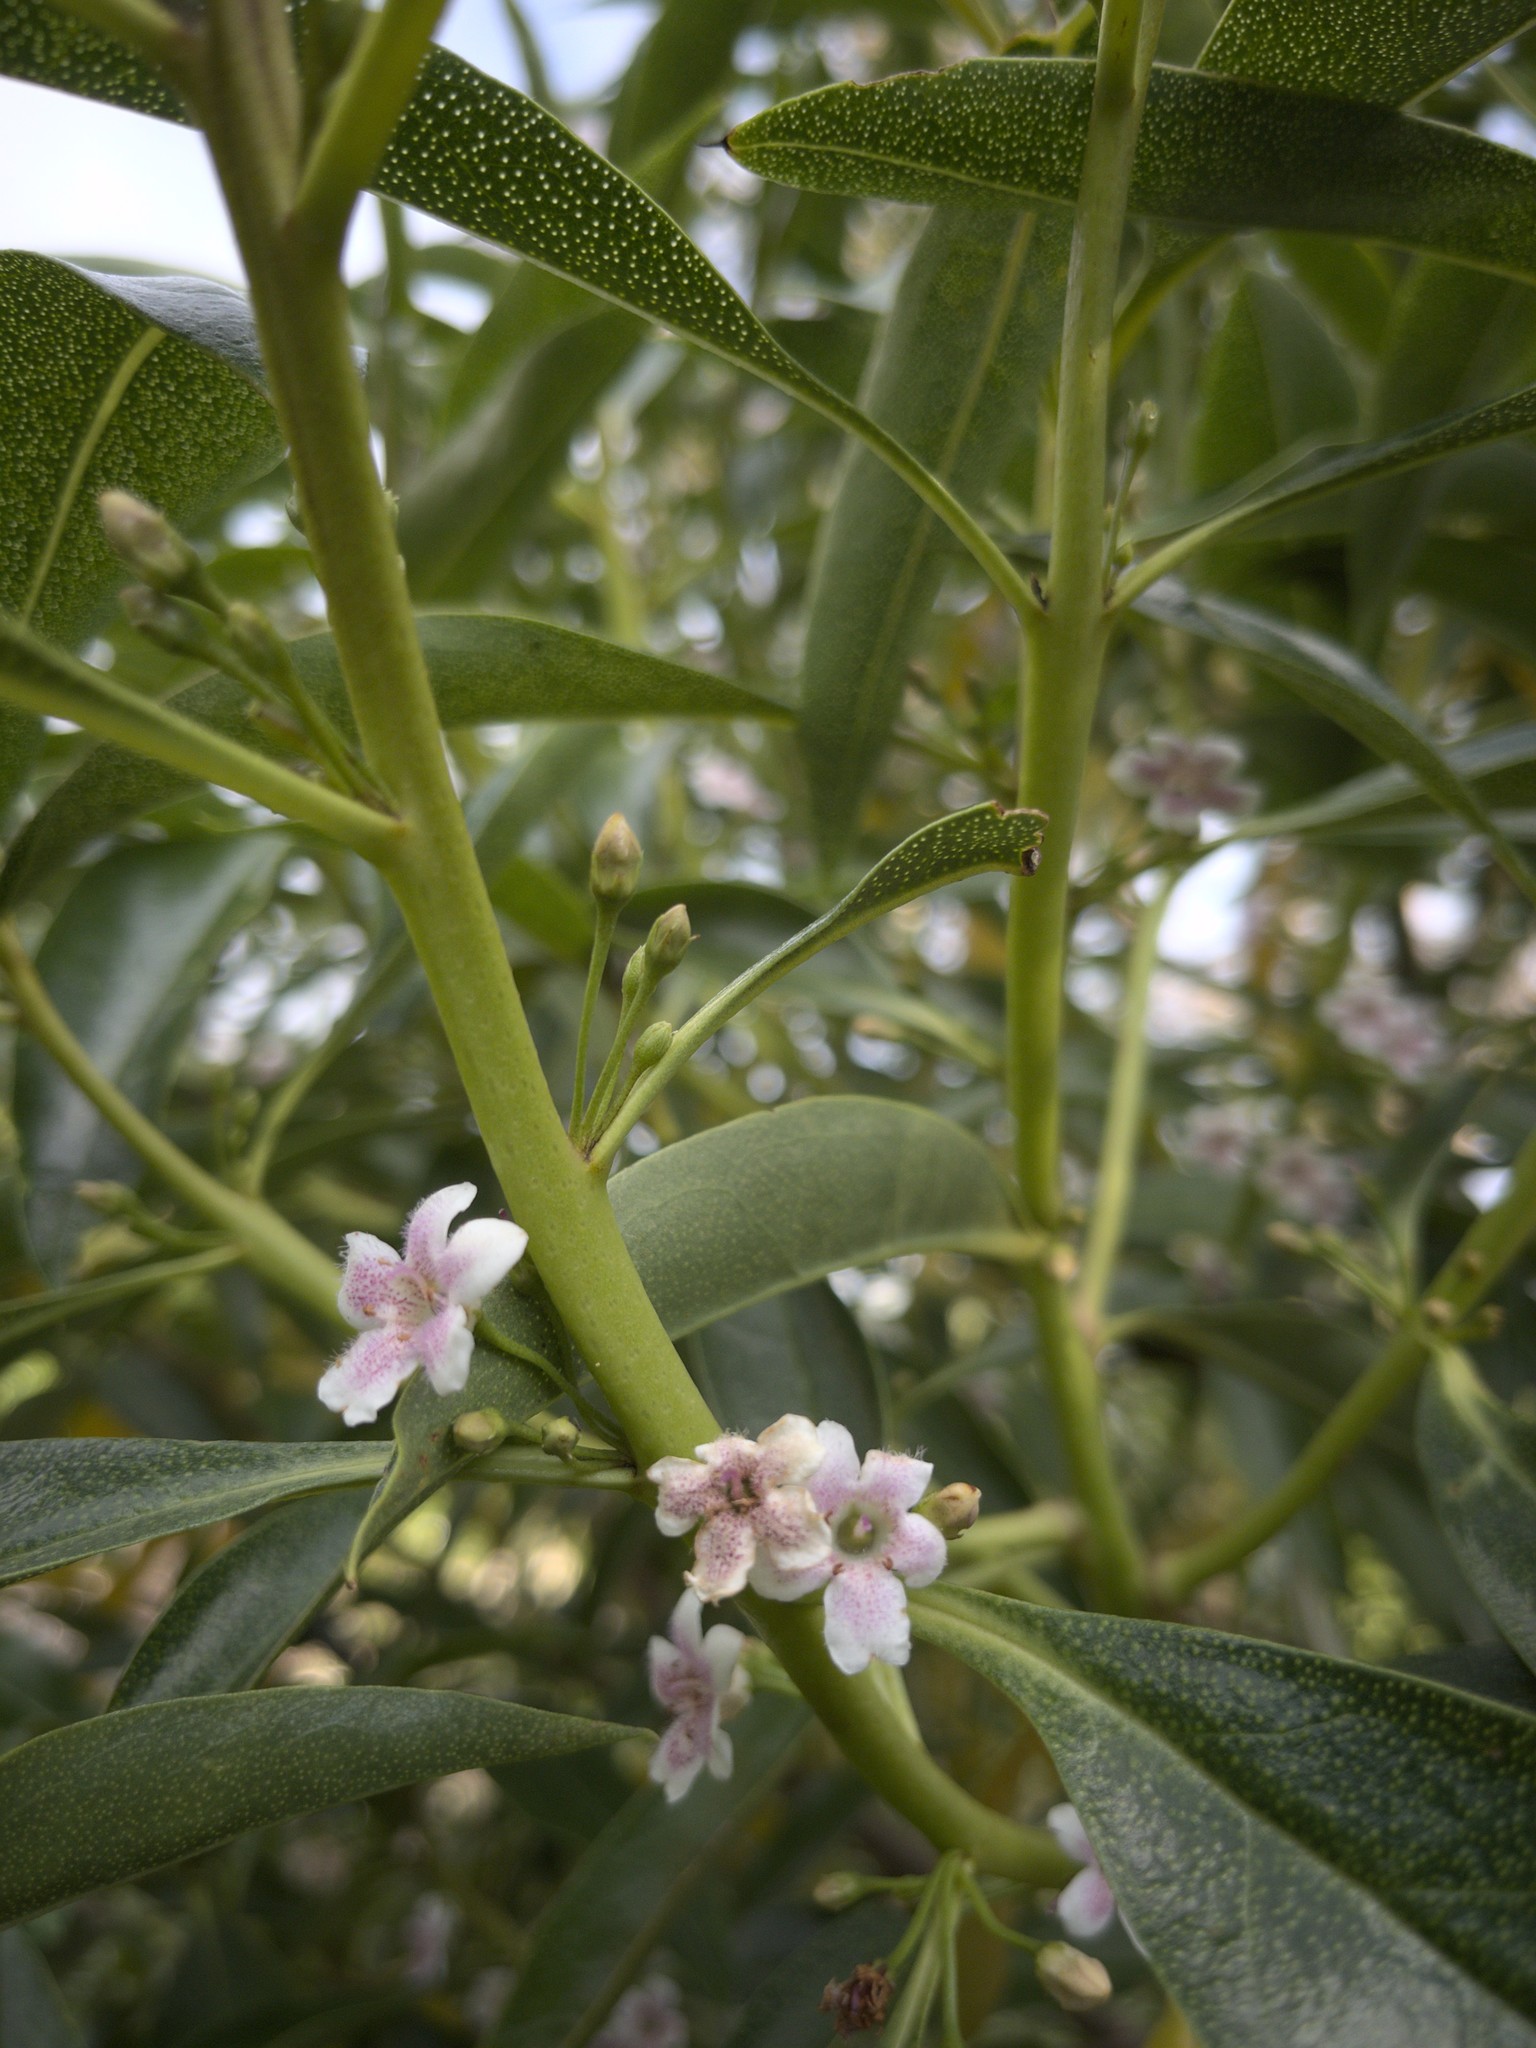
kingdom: Plantae
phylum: Tracheophyta
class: Magnoliopsida
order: Lamiales
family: Scrophulariaceae
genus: Myoporum
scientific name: Myoporum laetum
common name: Ngaio tree
